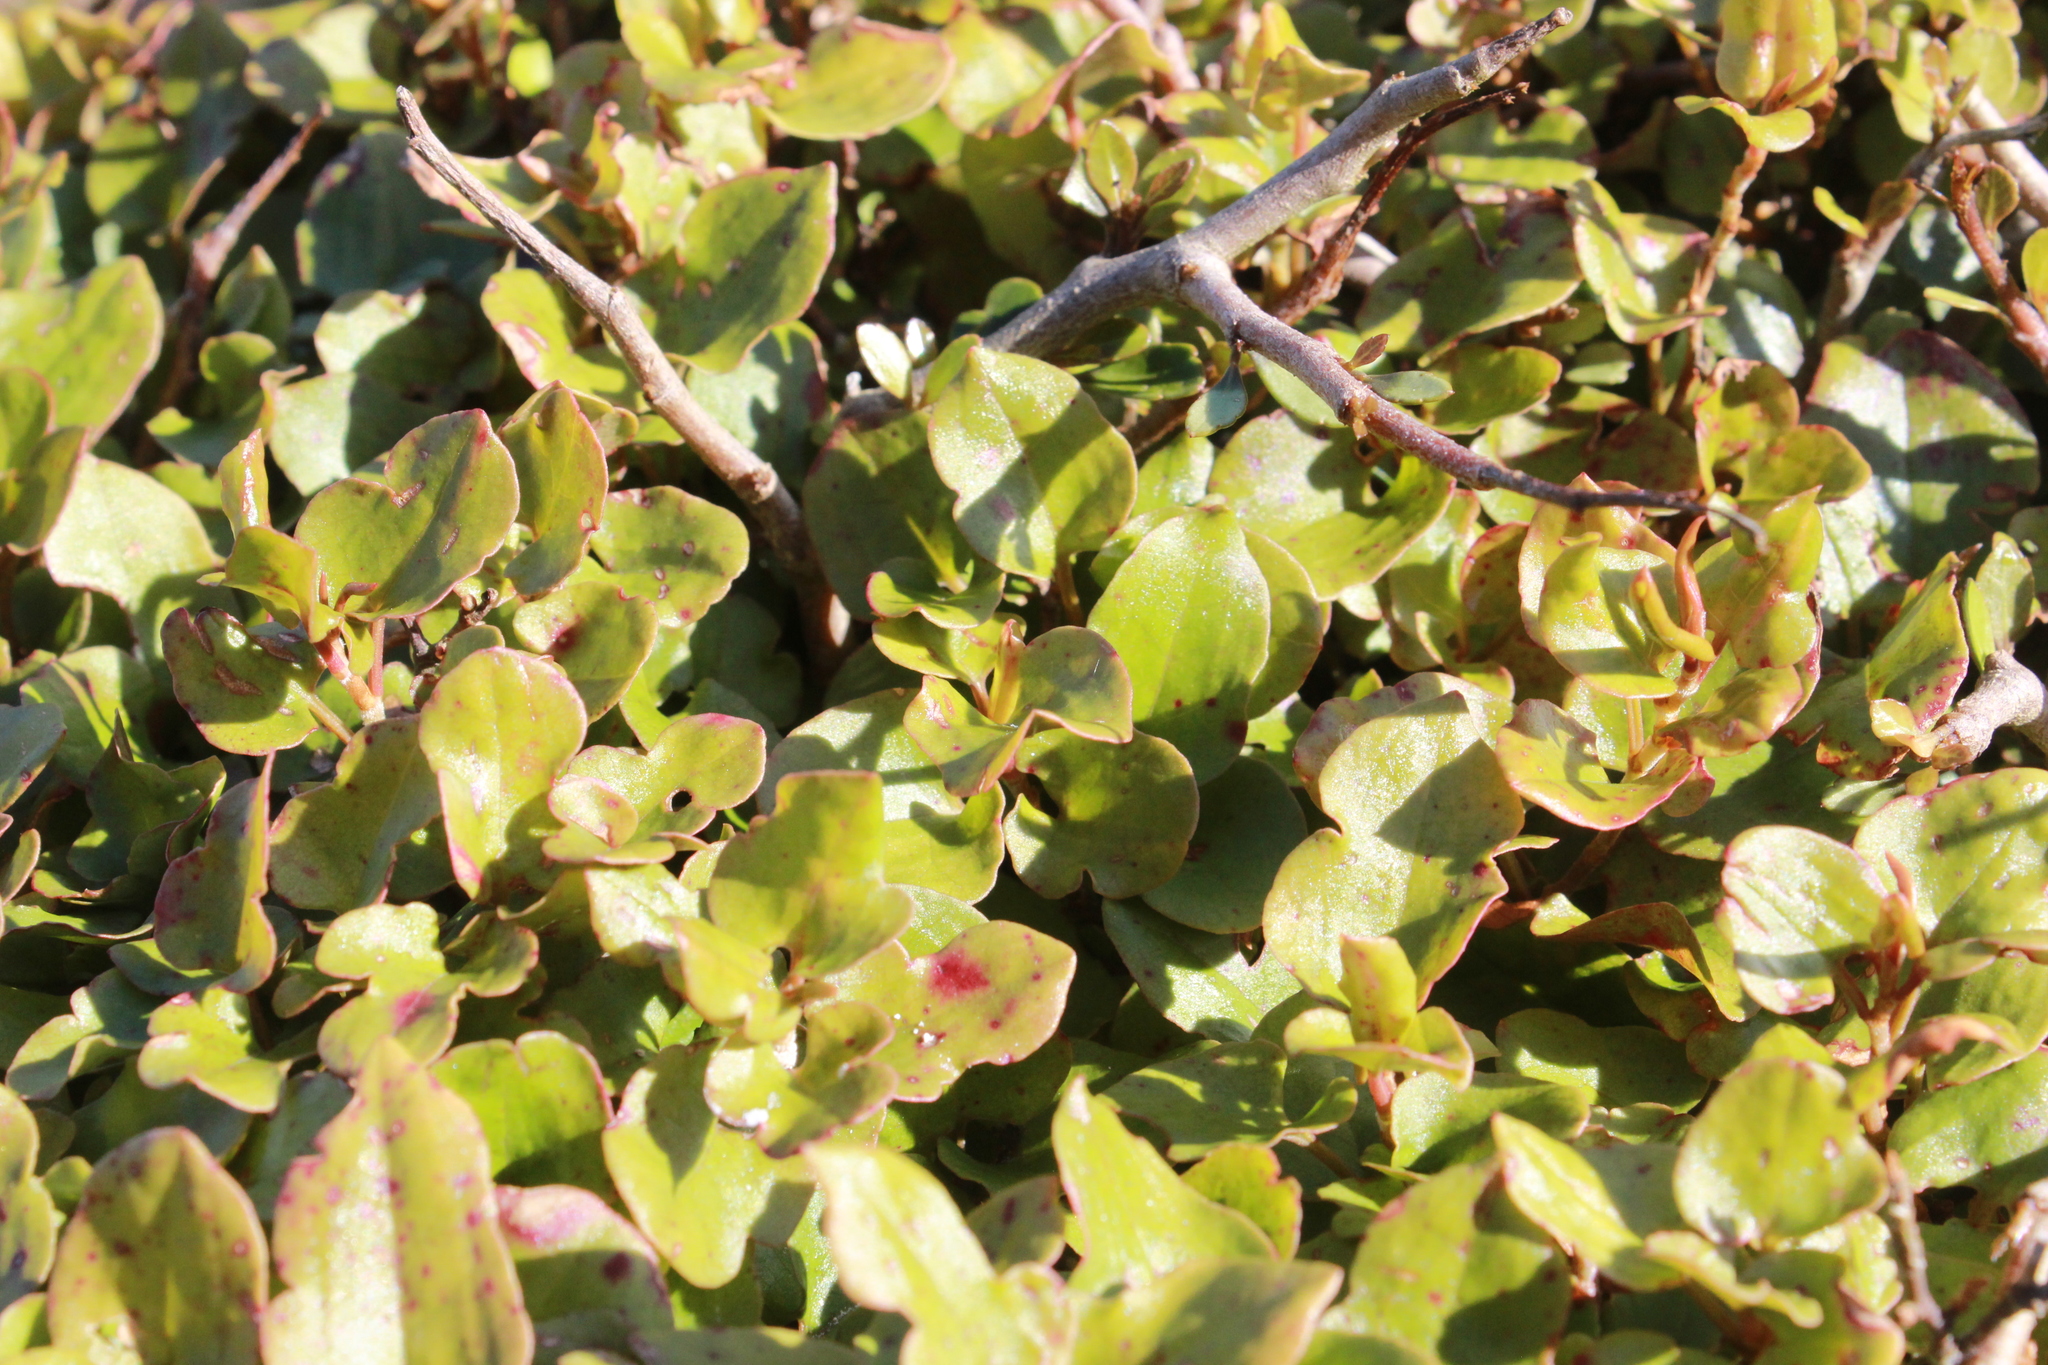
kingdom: Plantae
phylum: Tracheophyta
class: Magnoliopsida
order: Caryophyllales
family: Polygonaceae
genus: Muehlenbeckia
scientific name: Muehlenbeckia complexa
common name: Wireplant
